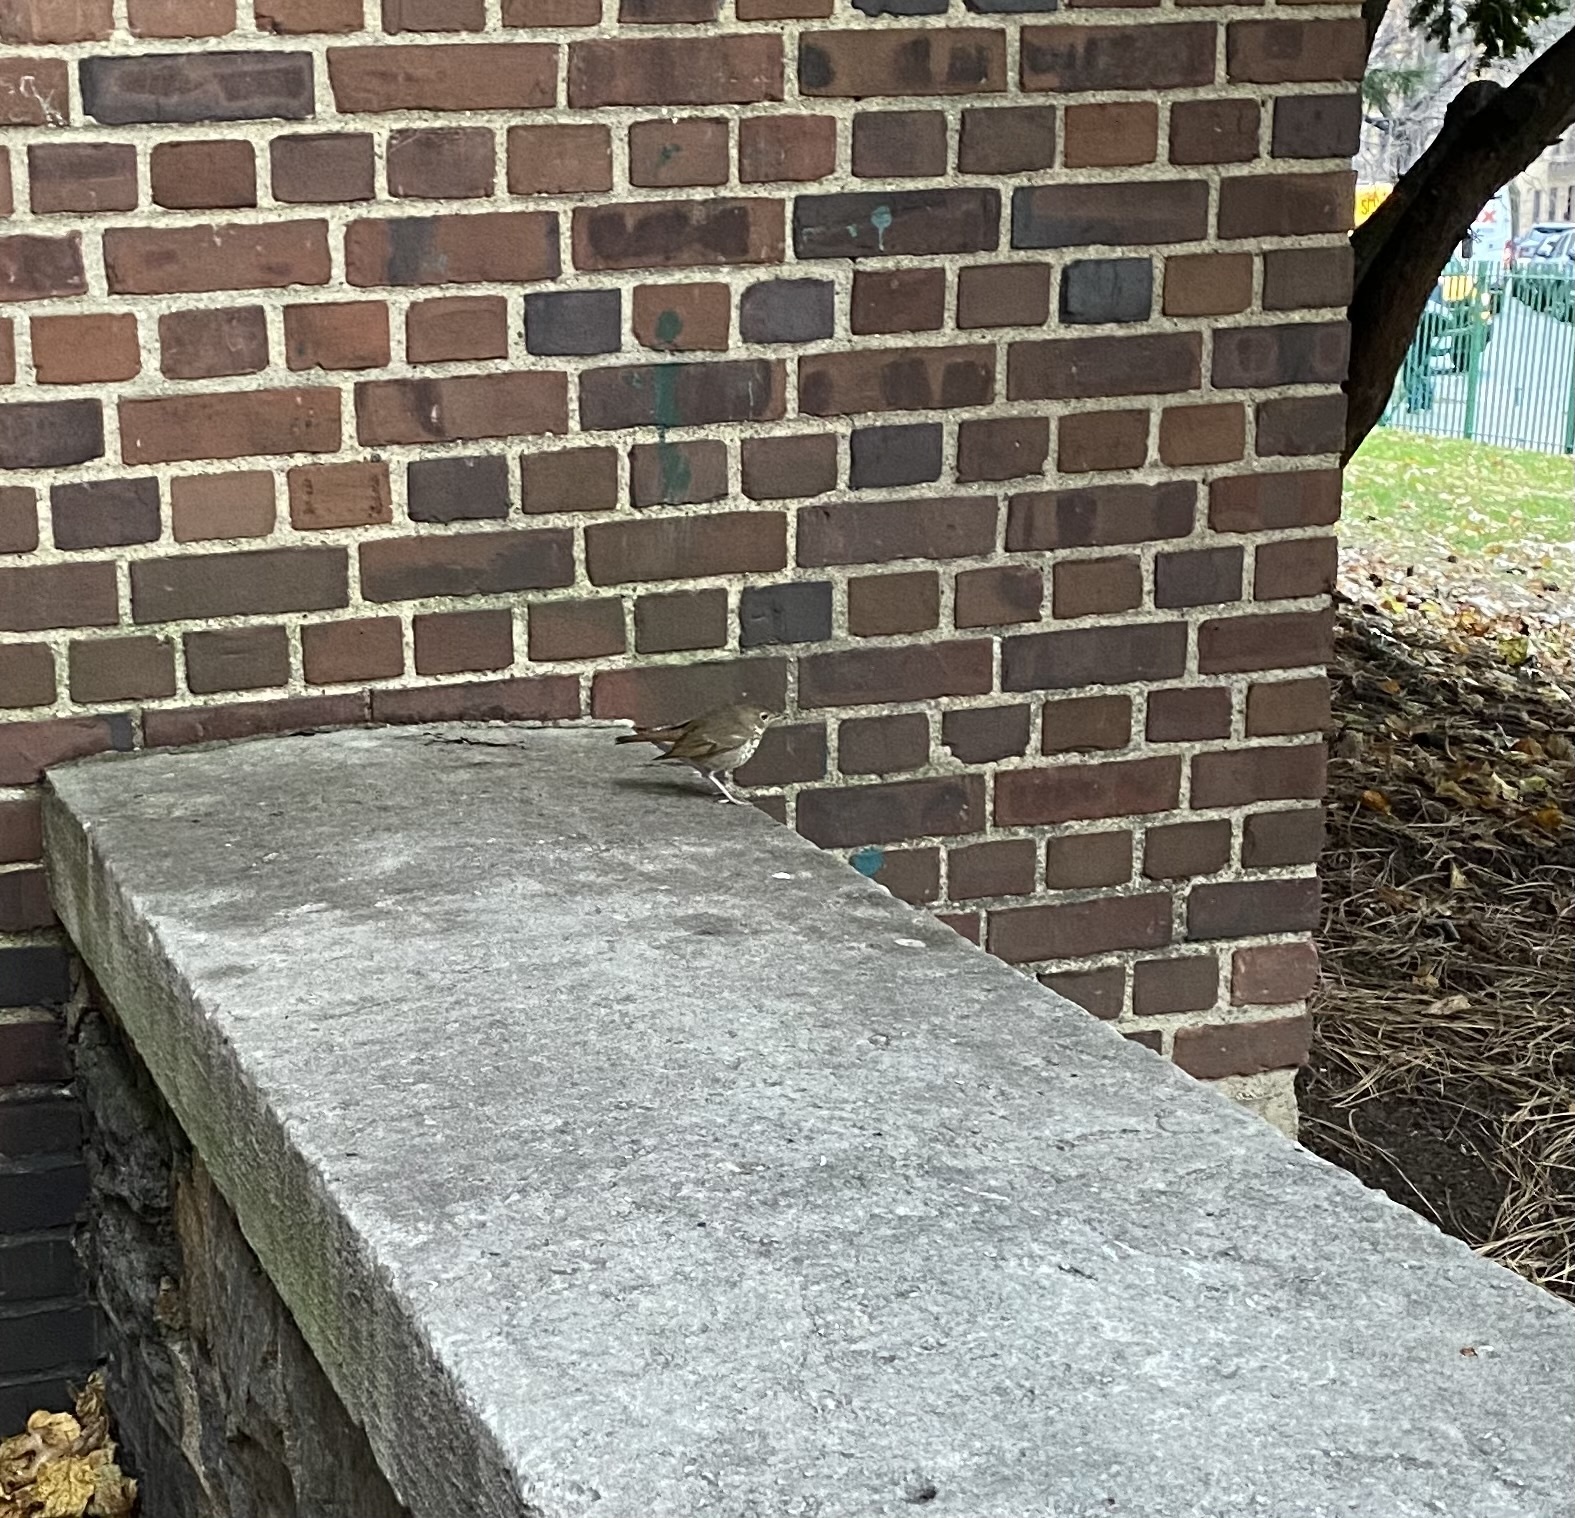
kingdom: Animalia
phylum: Chordata
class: Aves
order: Passeriformes
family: Turdidae
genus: Catharus
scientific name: Catharus guttatus
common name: Hermit thrush
